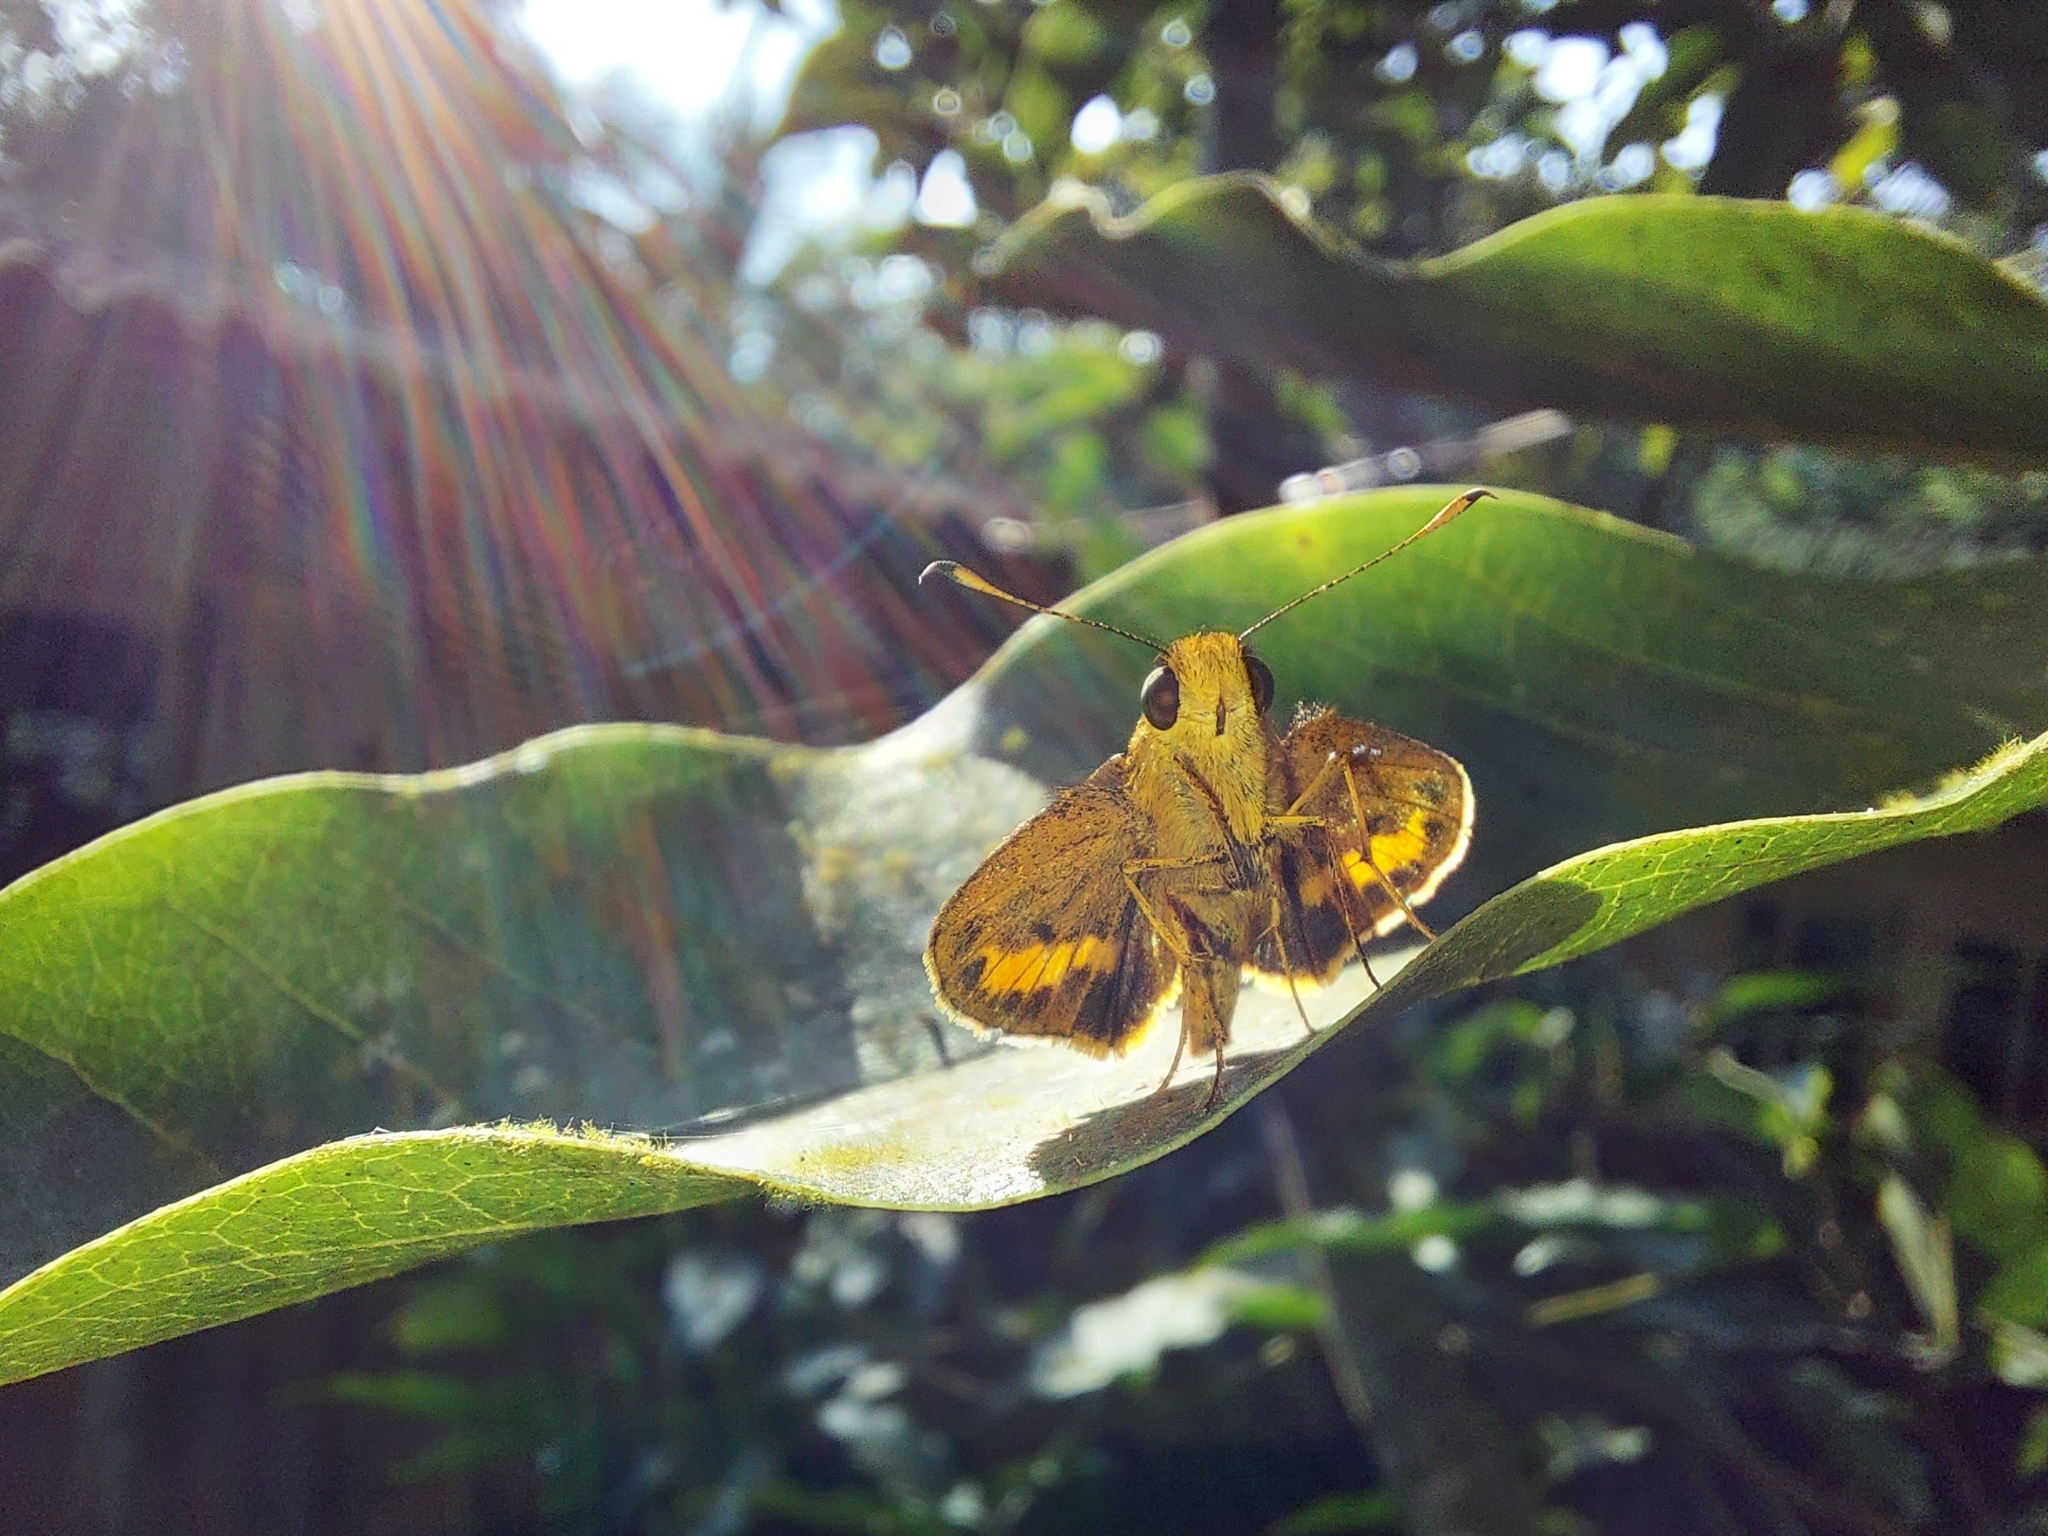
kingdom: Animalia
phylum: Arthropoda
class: Insecta
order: Lepidoptera
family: Hesperiidae
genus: Oriens
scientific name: Oriens goloides
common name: Smaller dartlet
